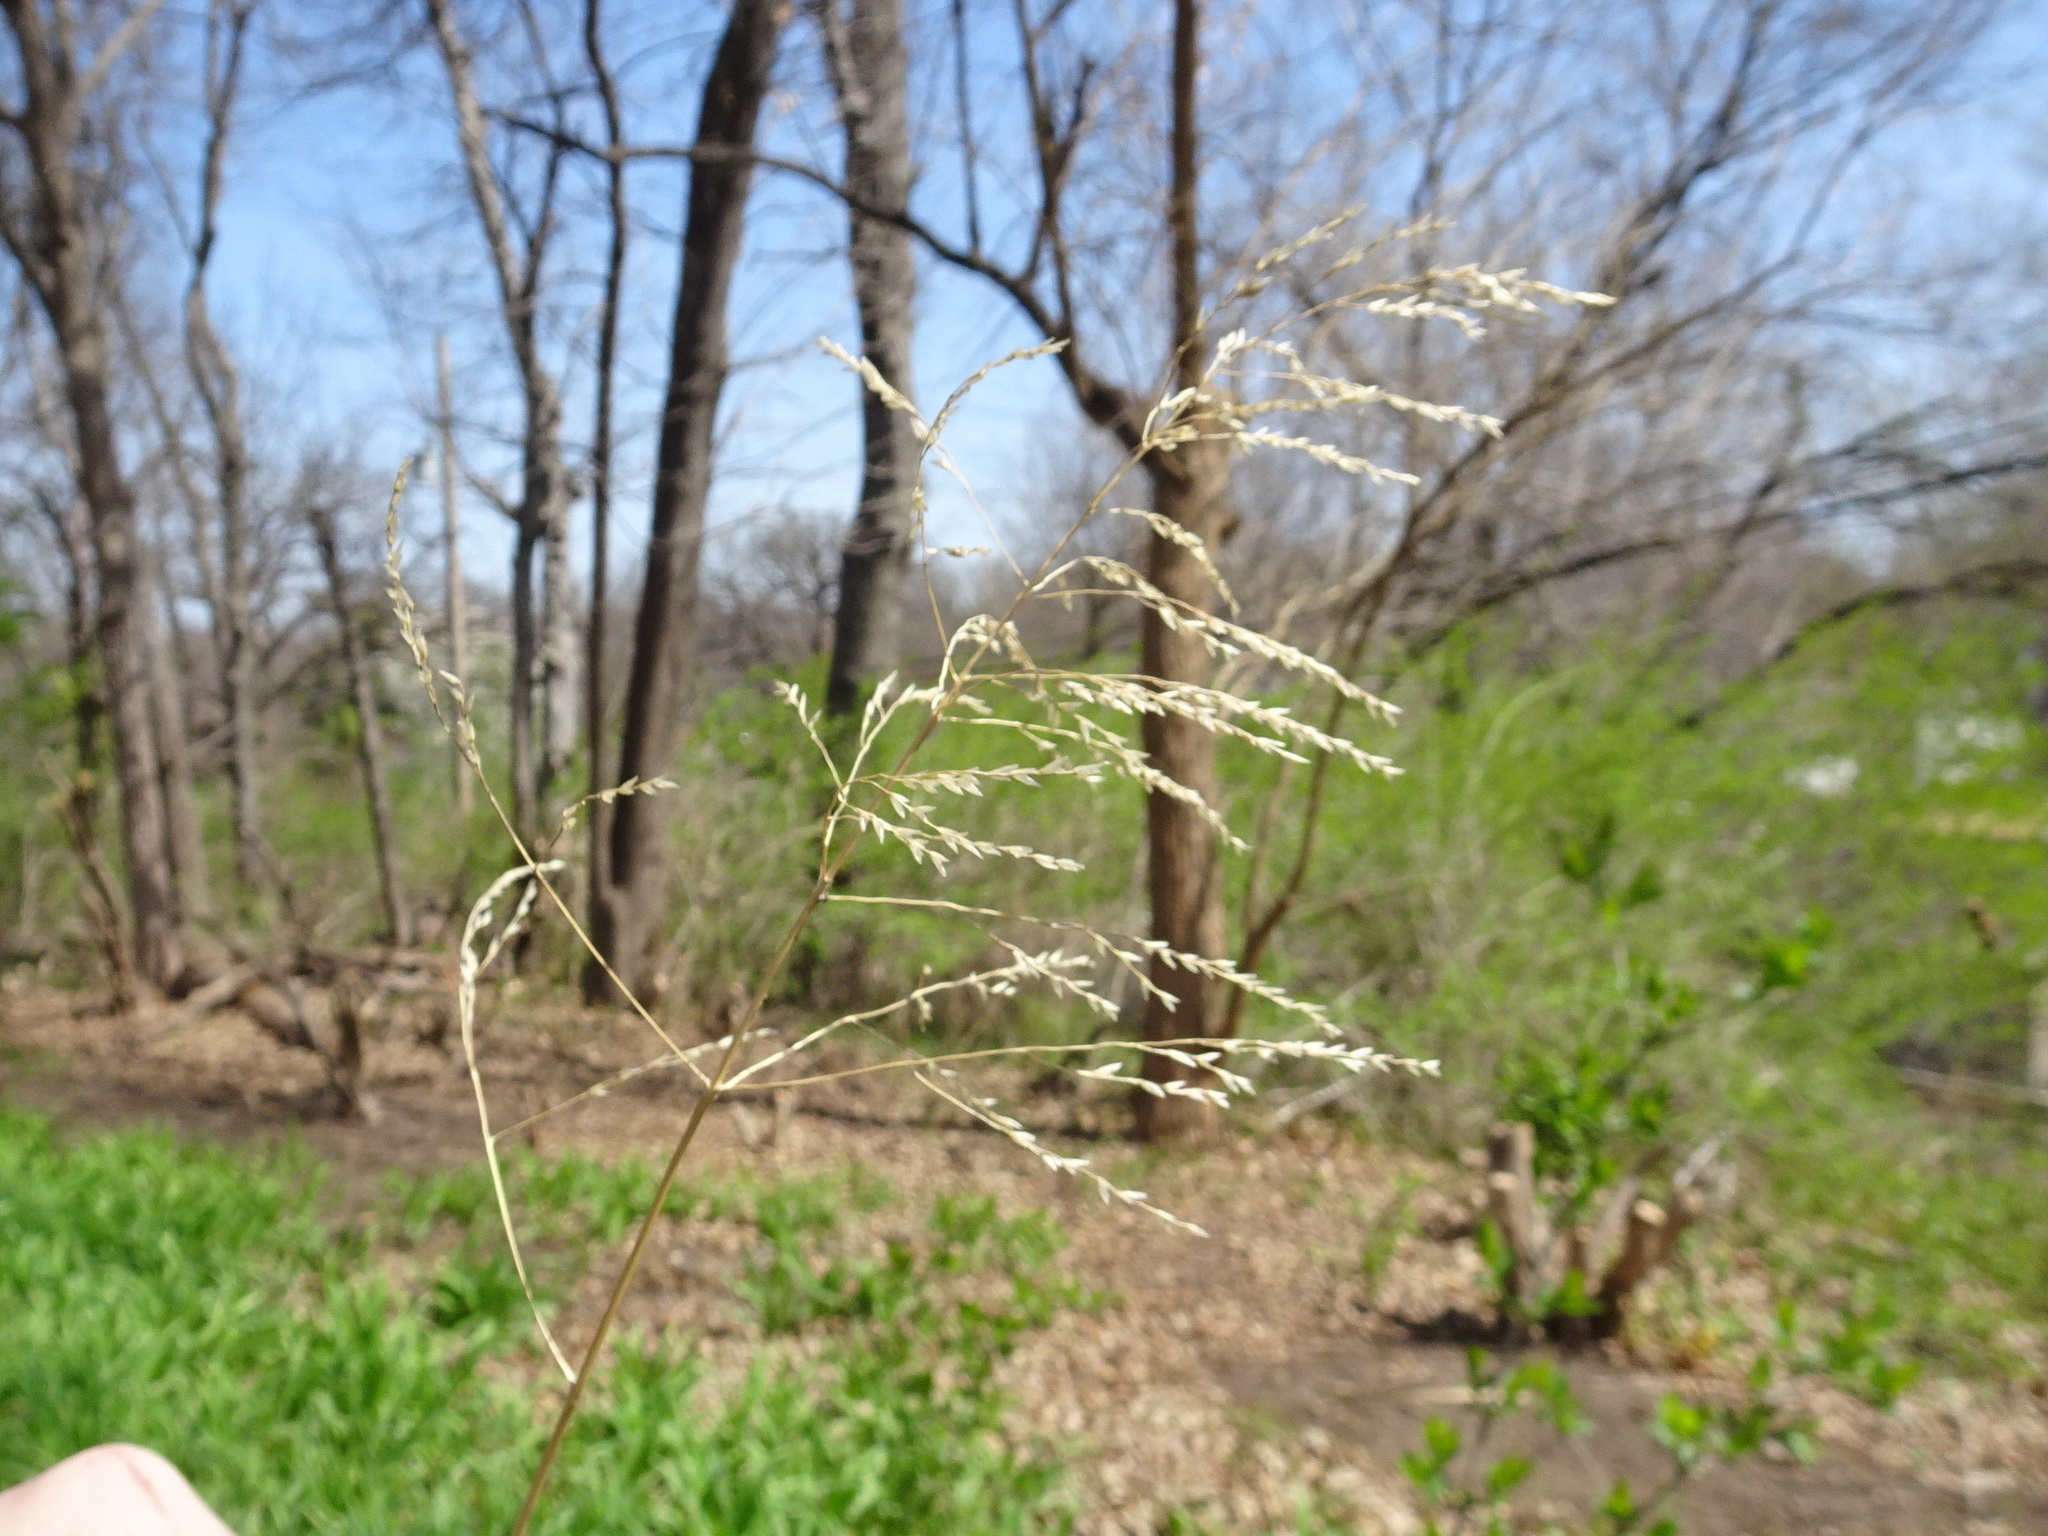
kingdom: Plantae
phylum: Tracheophyta
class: Liliopsida
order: Poales
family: Poaceae
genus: Tridens
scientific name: Tridens flavus
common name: Purpletop
